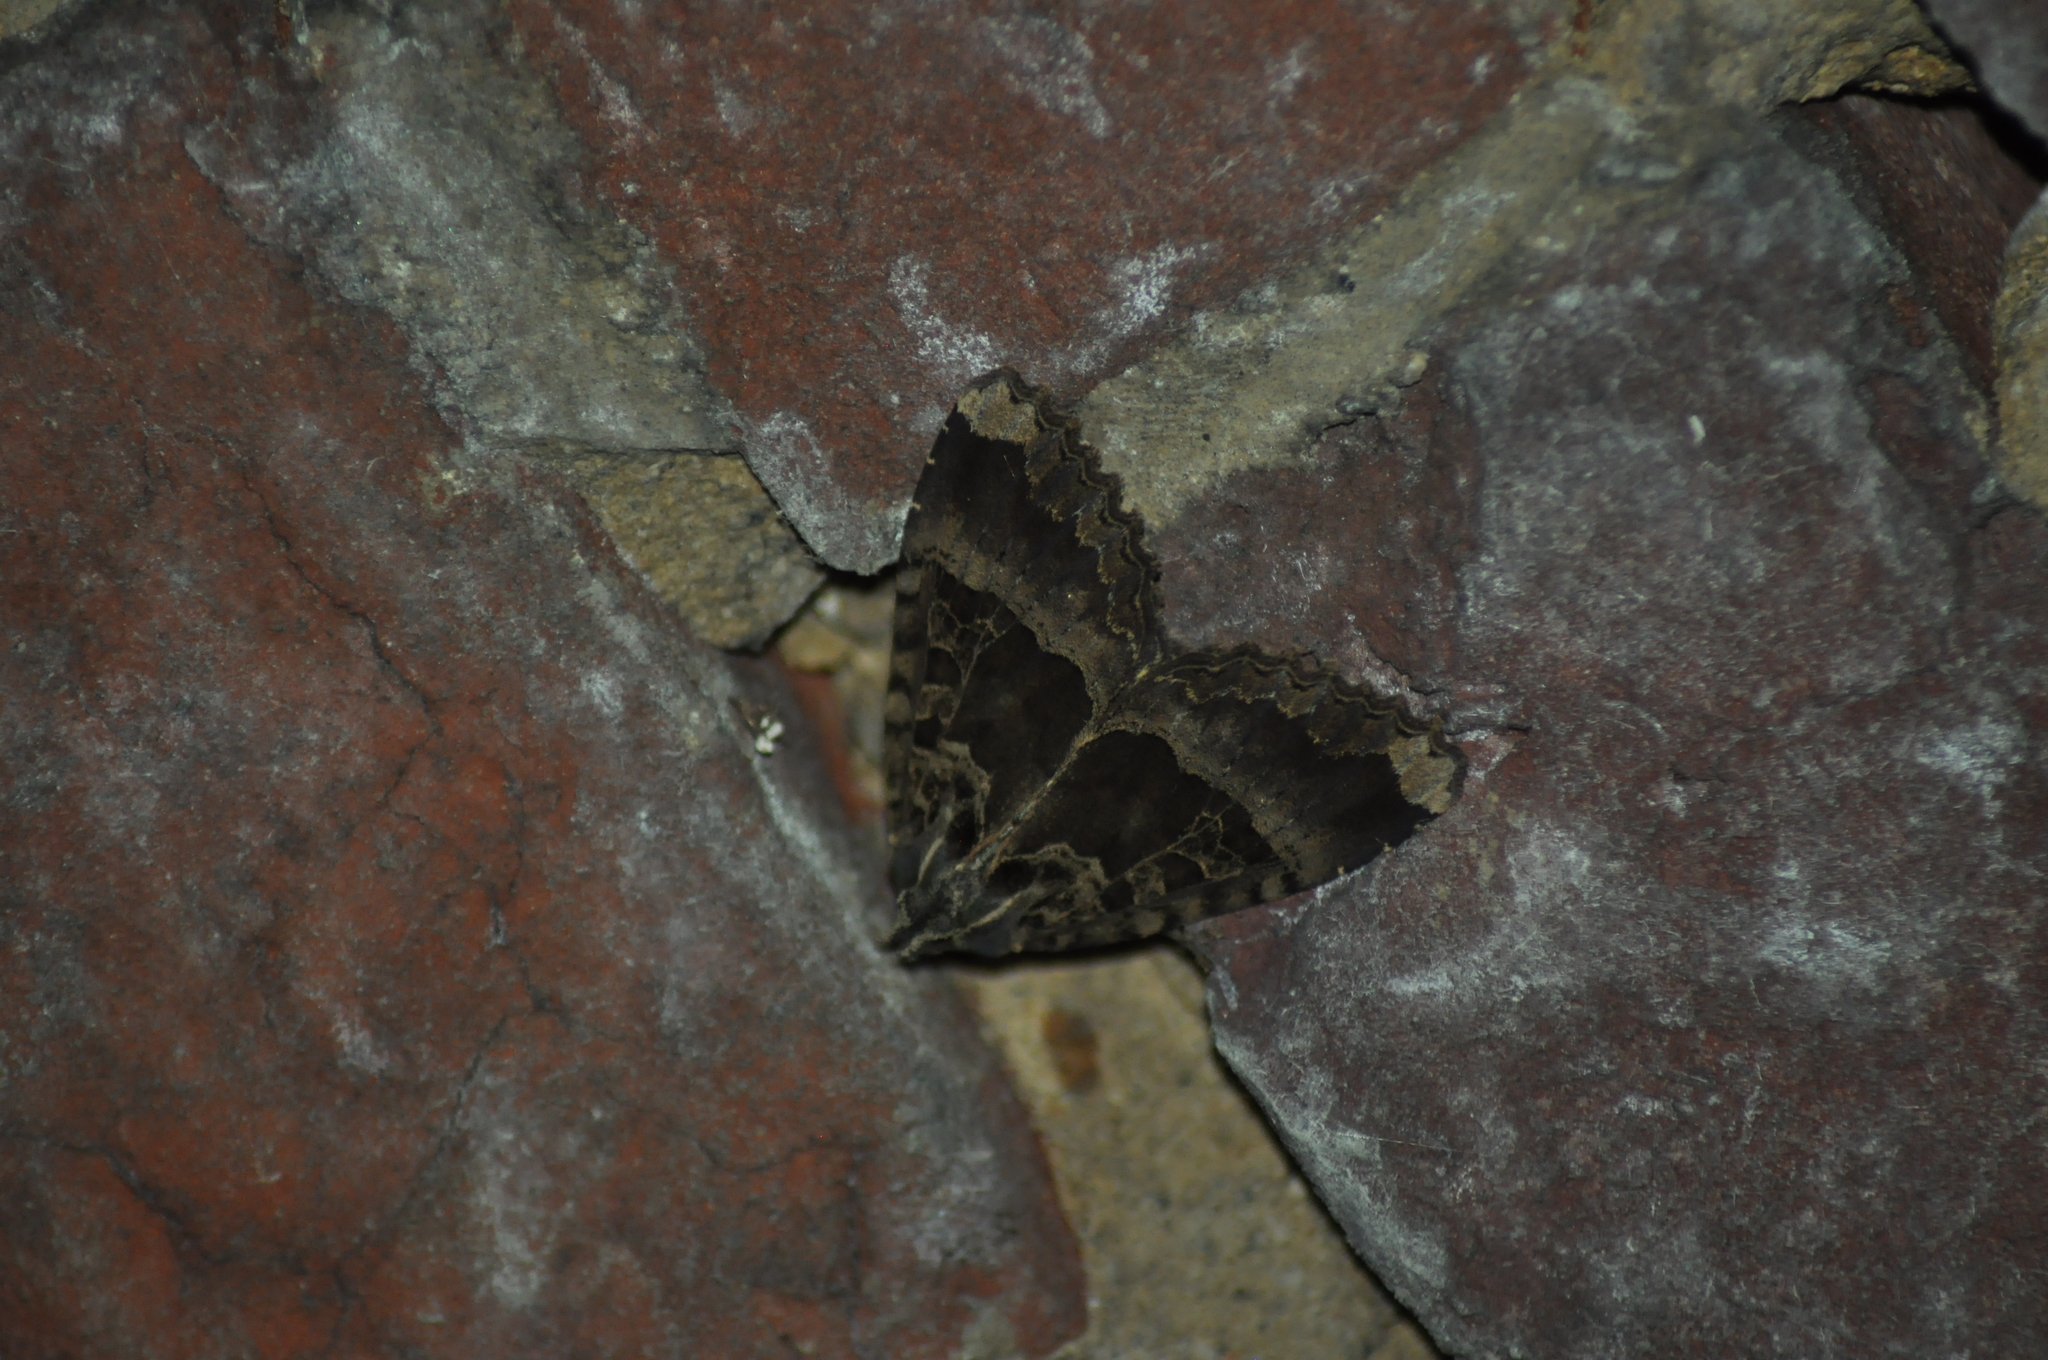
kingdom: Animalia
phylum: Arthropoda
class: Insecta
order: Lepidoptera
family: Noctuidae
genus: Mormo
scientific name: Mormo maura
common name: Old lady
